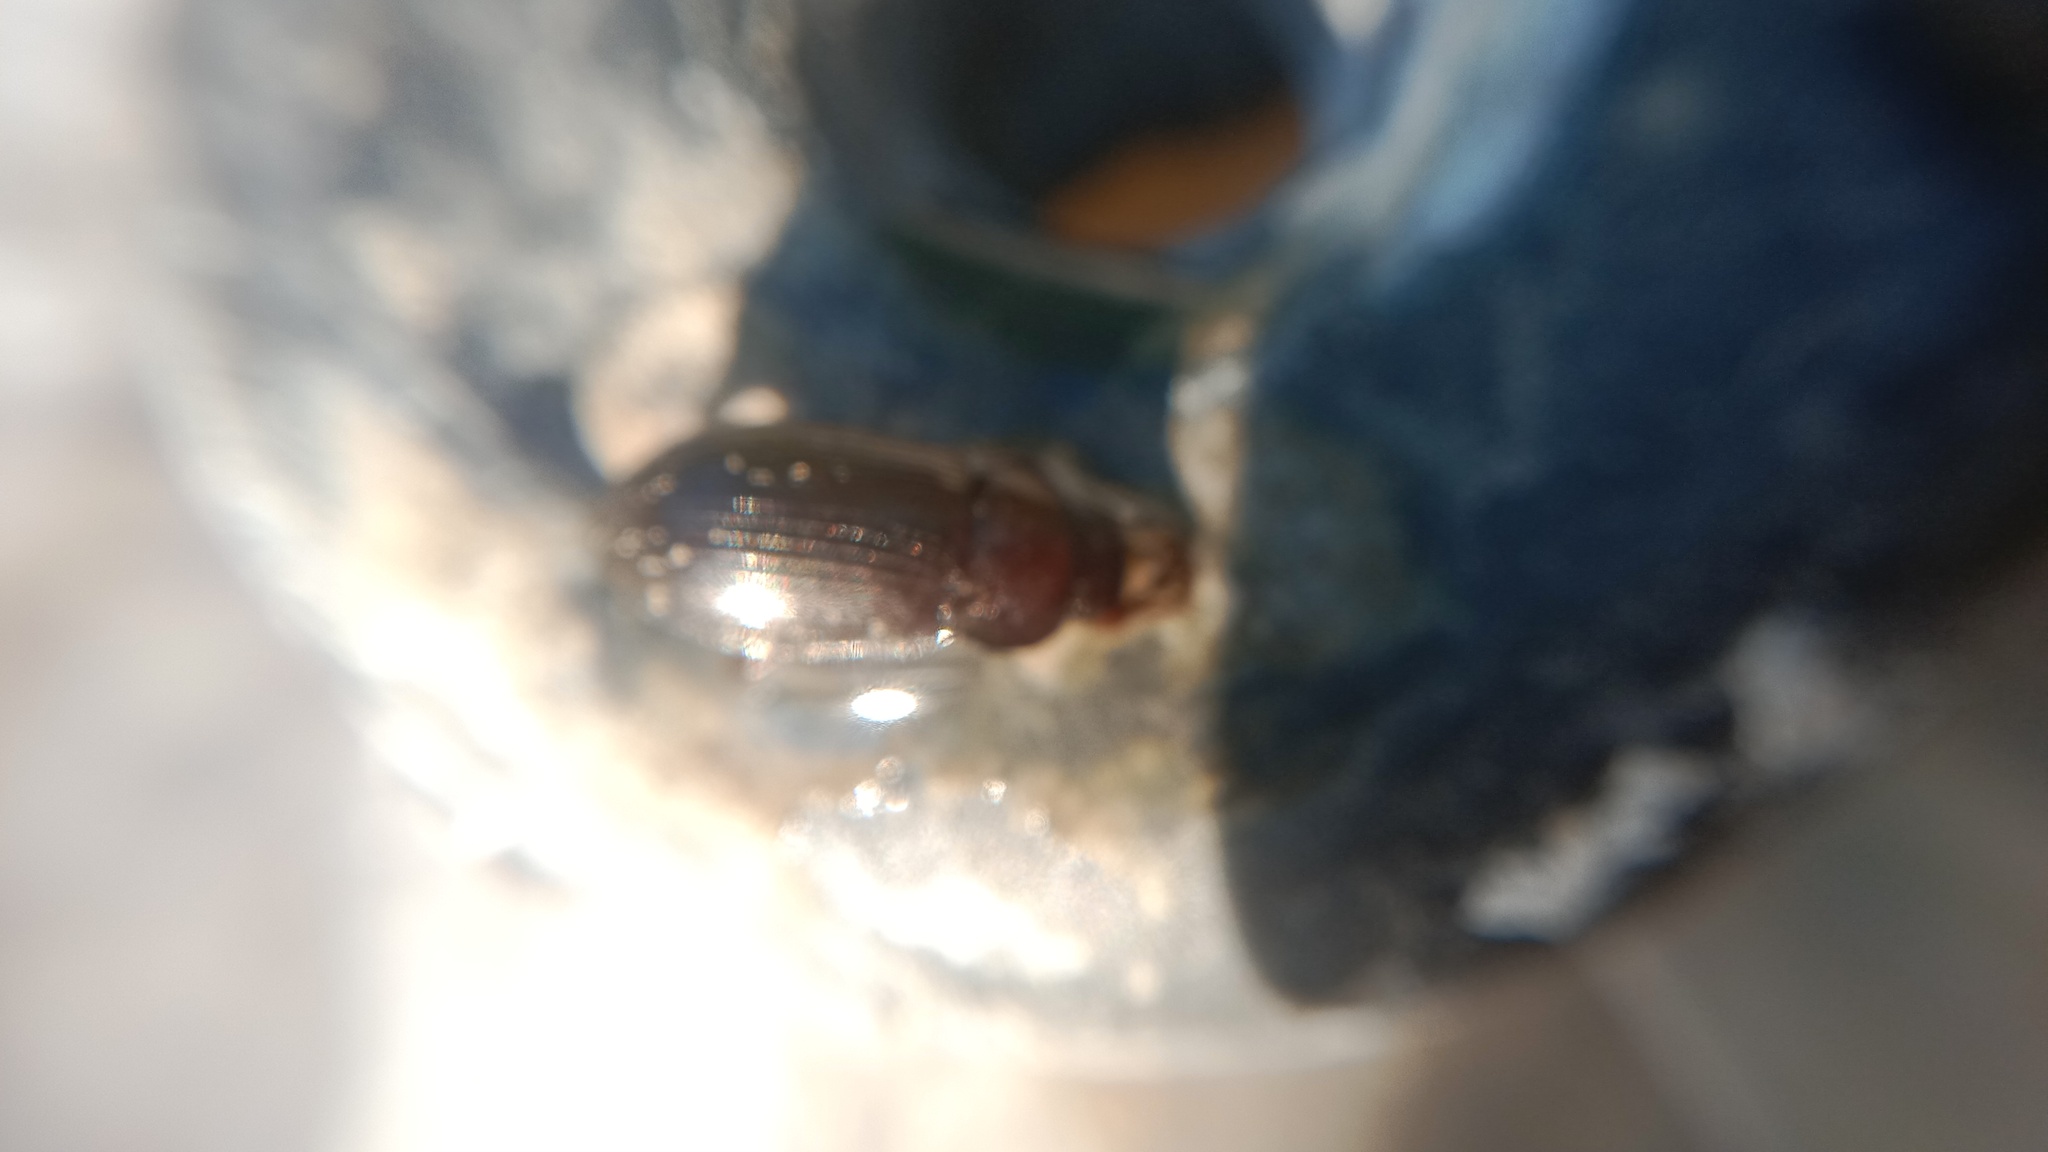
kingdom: Animalia
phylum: Arthropoda
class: Insecta
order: Coleoptera
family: Tenebrionidae
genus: Nalassus
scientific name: Nalassus laevioctostriatus
